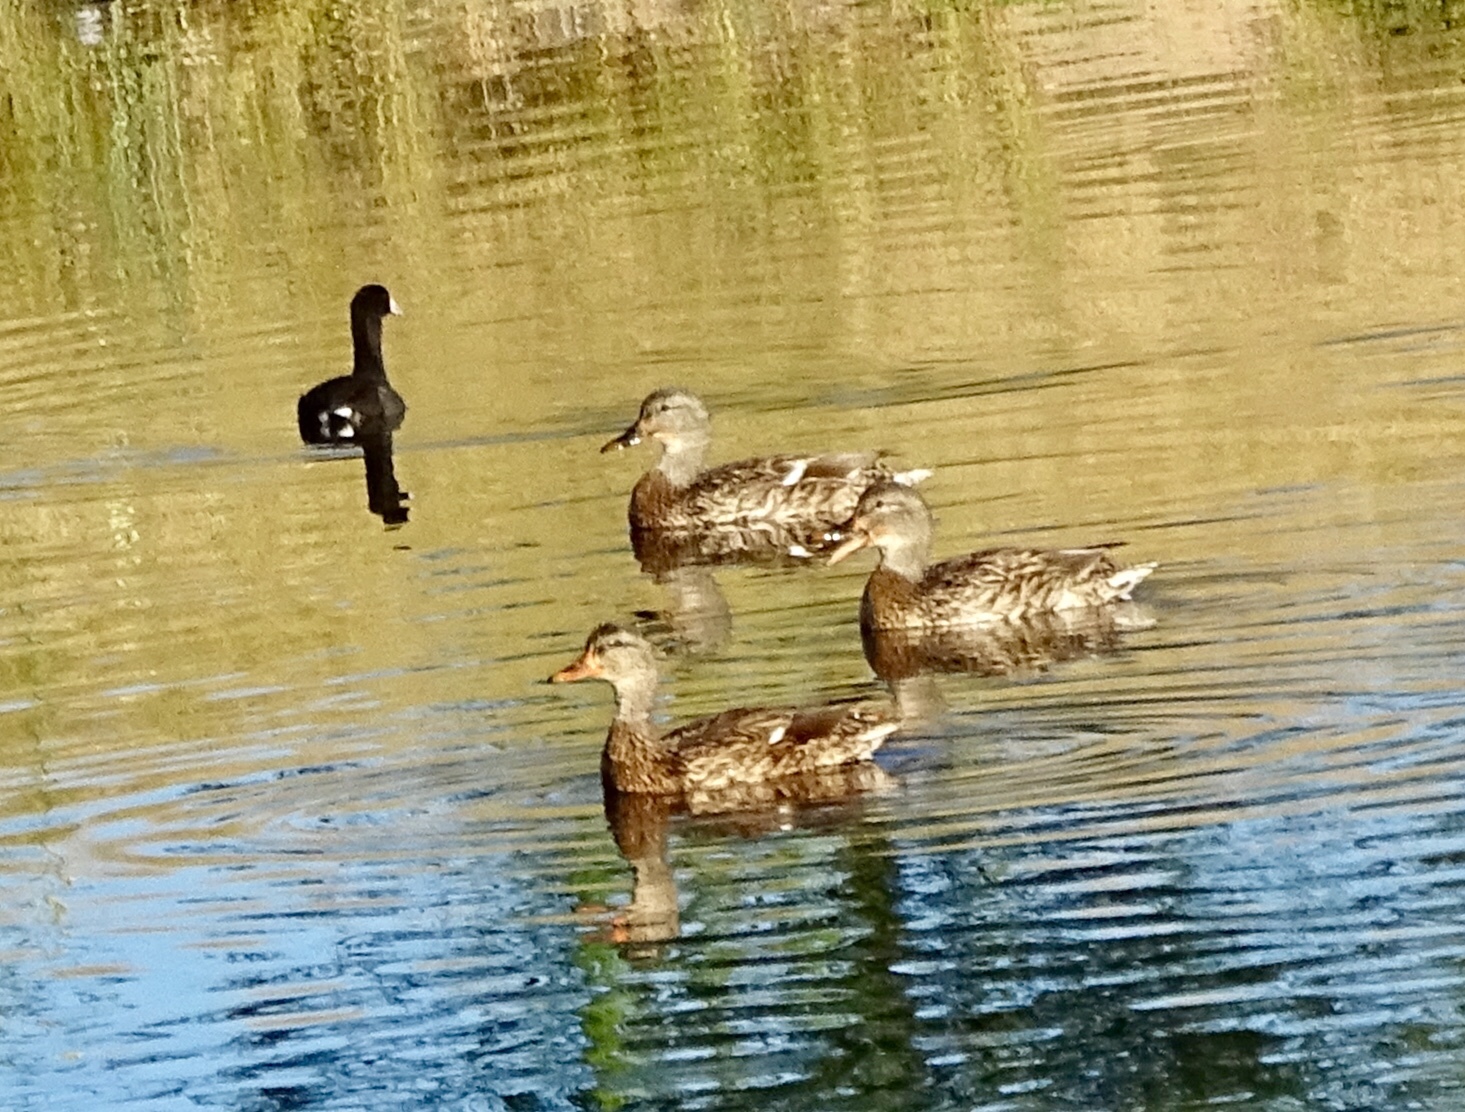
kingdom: Animalia
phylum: Chordata
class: Aves
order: Anseriformes
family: Anatidae
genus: Anas
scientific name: Anas platyrhynchos
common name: Mallard
